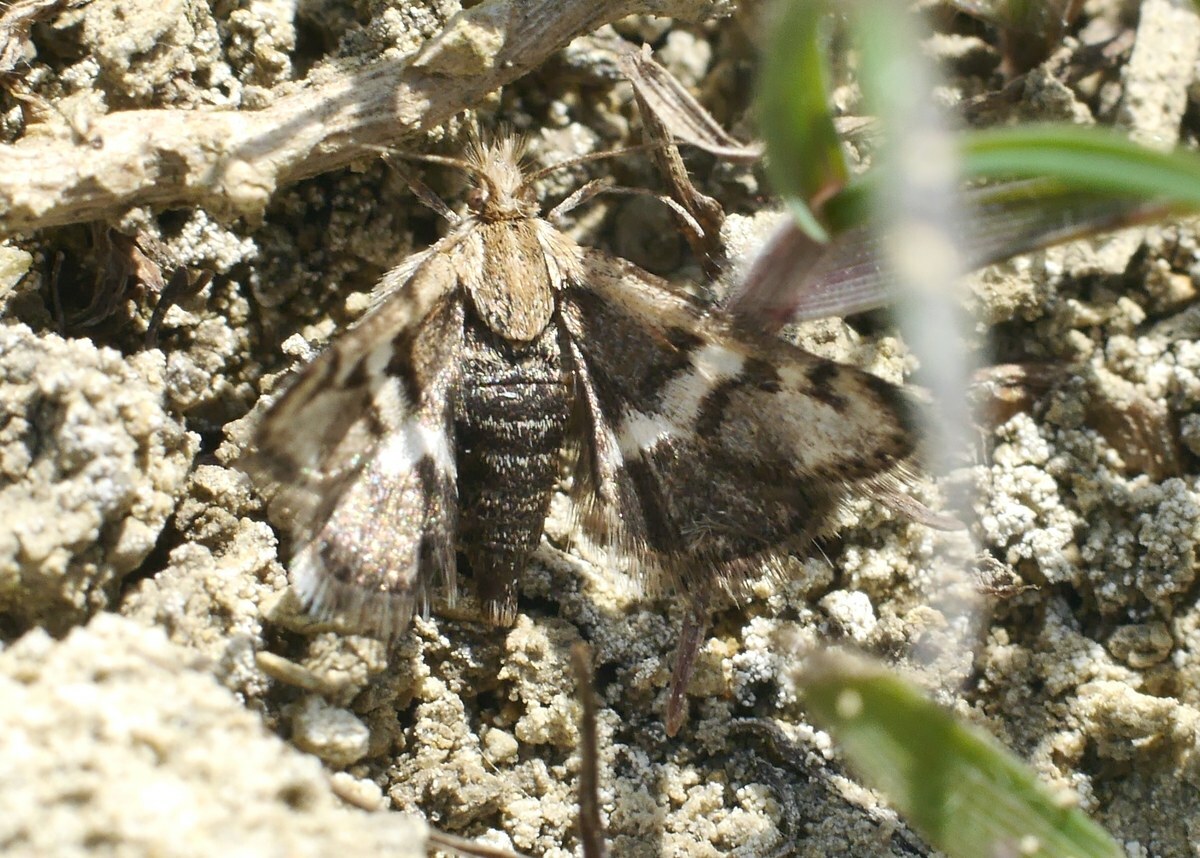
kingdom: Animalia
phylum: Arthropoda
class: Insecta
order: Lepidoptera
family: Crambidae
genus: Titanio
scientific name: Titanio normalis
